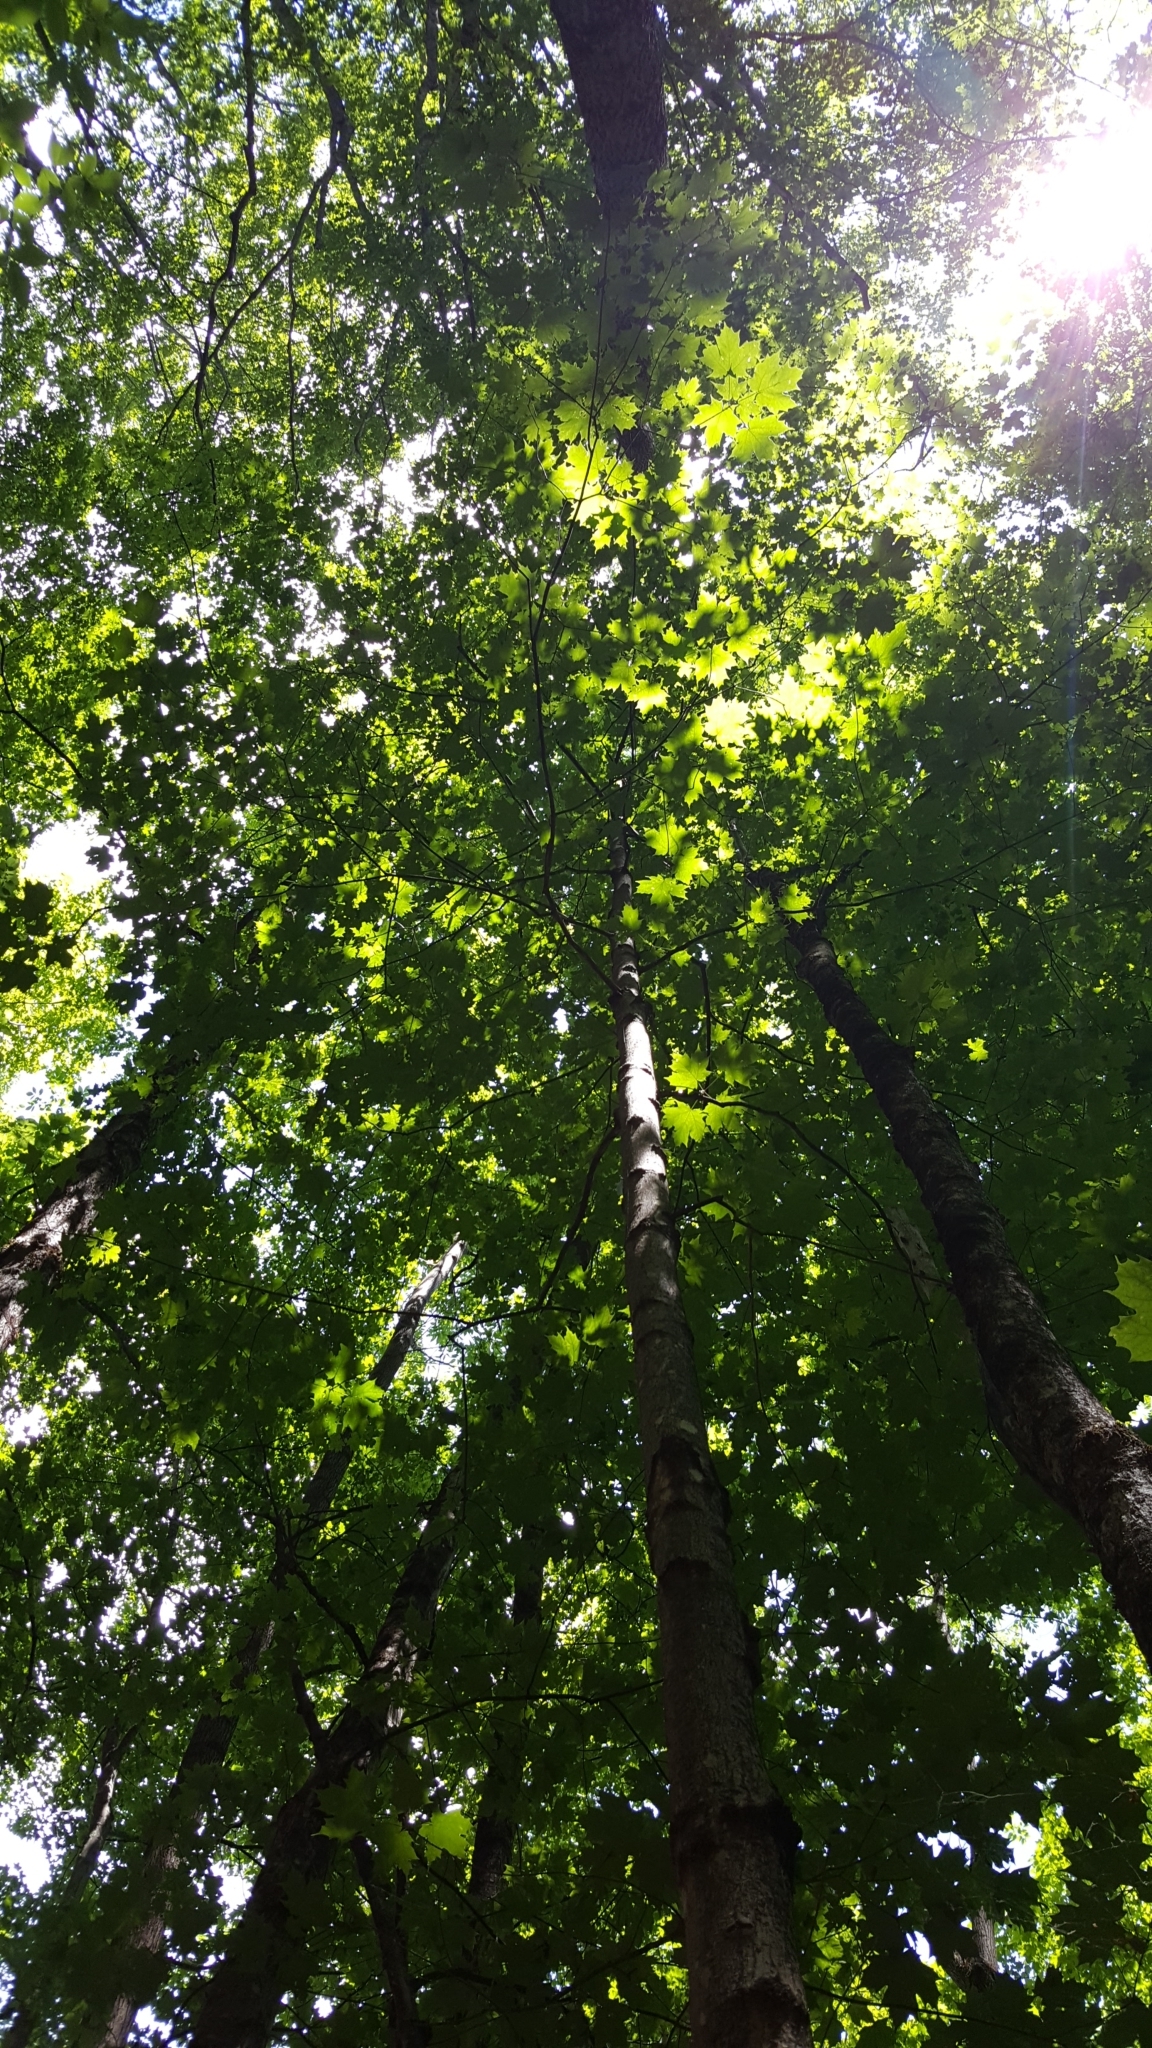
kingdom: Plantae
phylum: Tracheophyta
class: Magnoliopsida
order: Sapindales
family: Sapindaceae
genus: Acer
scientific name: Acer saccharum
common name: Sugar maple
